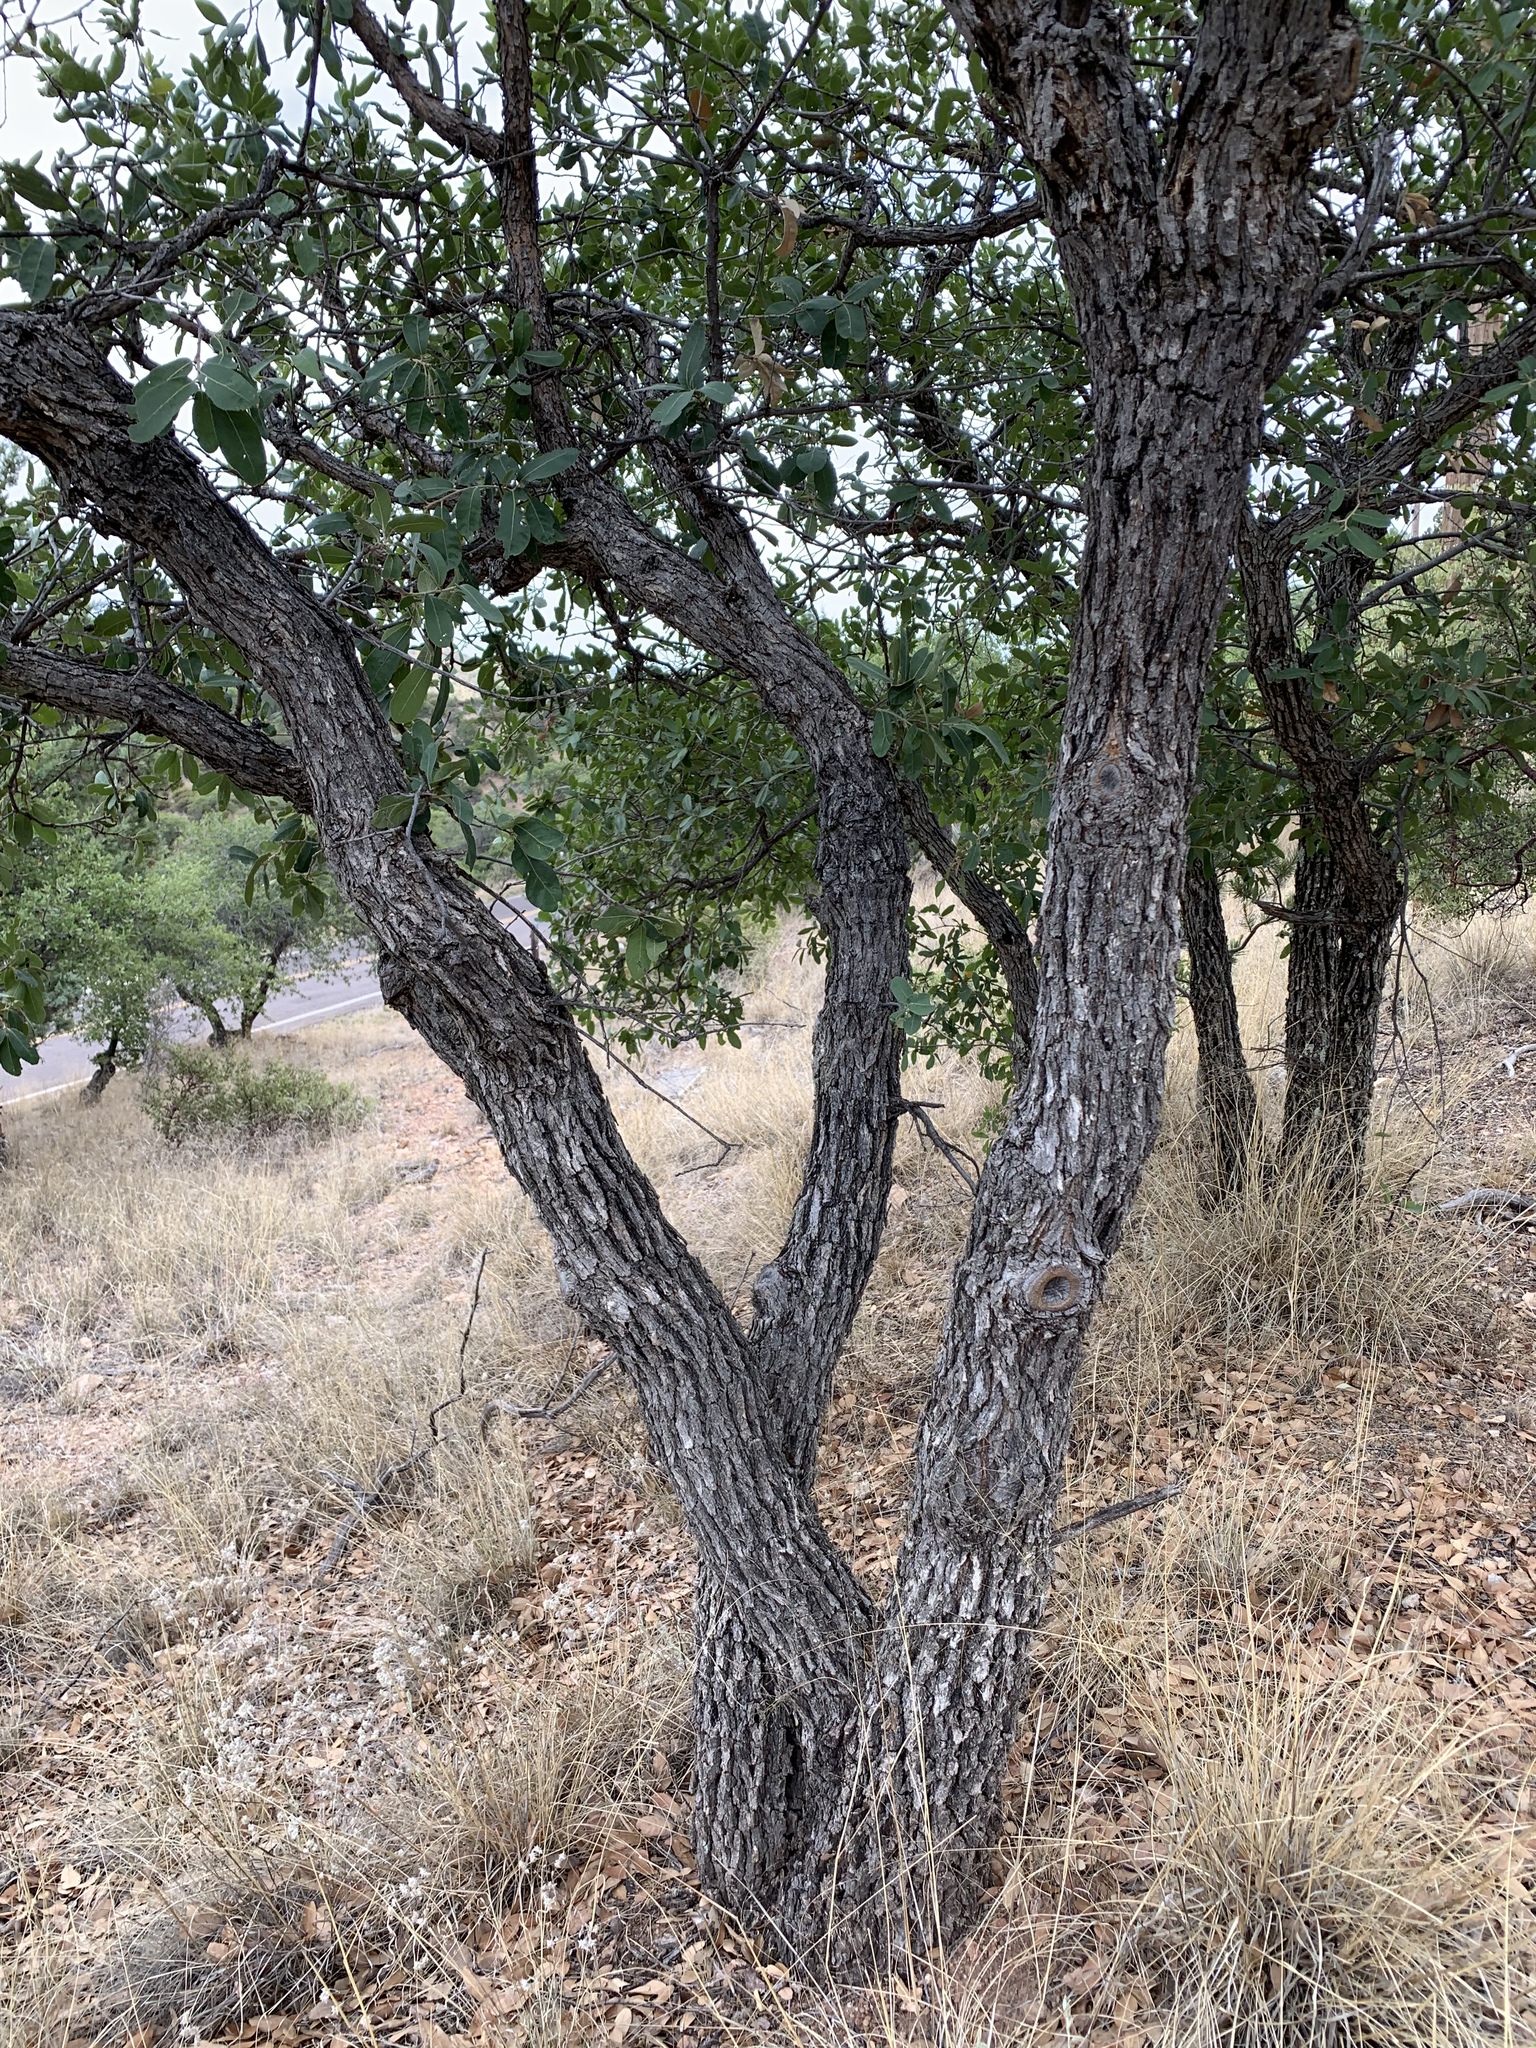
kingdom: Plantae
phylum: Tracheophyta
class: Magnoliopsida
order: Fagales
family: Fagaceae
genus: Quercus
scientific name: Quercus oblongifolia
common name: Mexican blue oak
